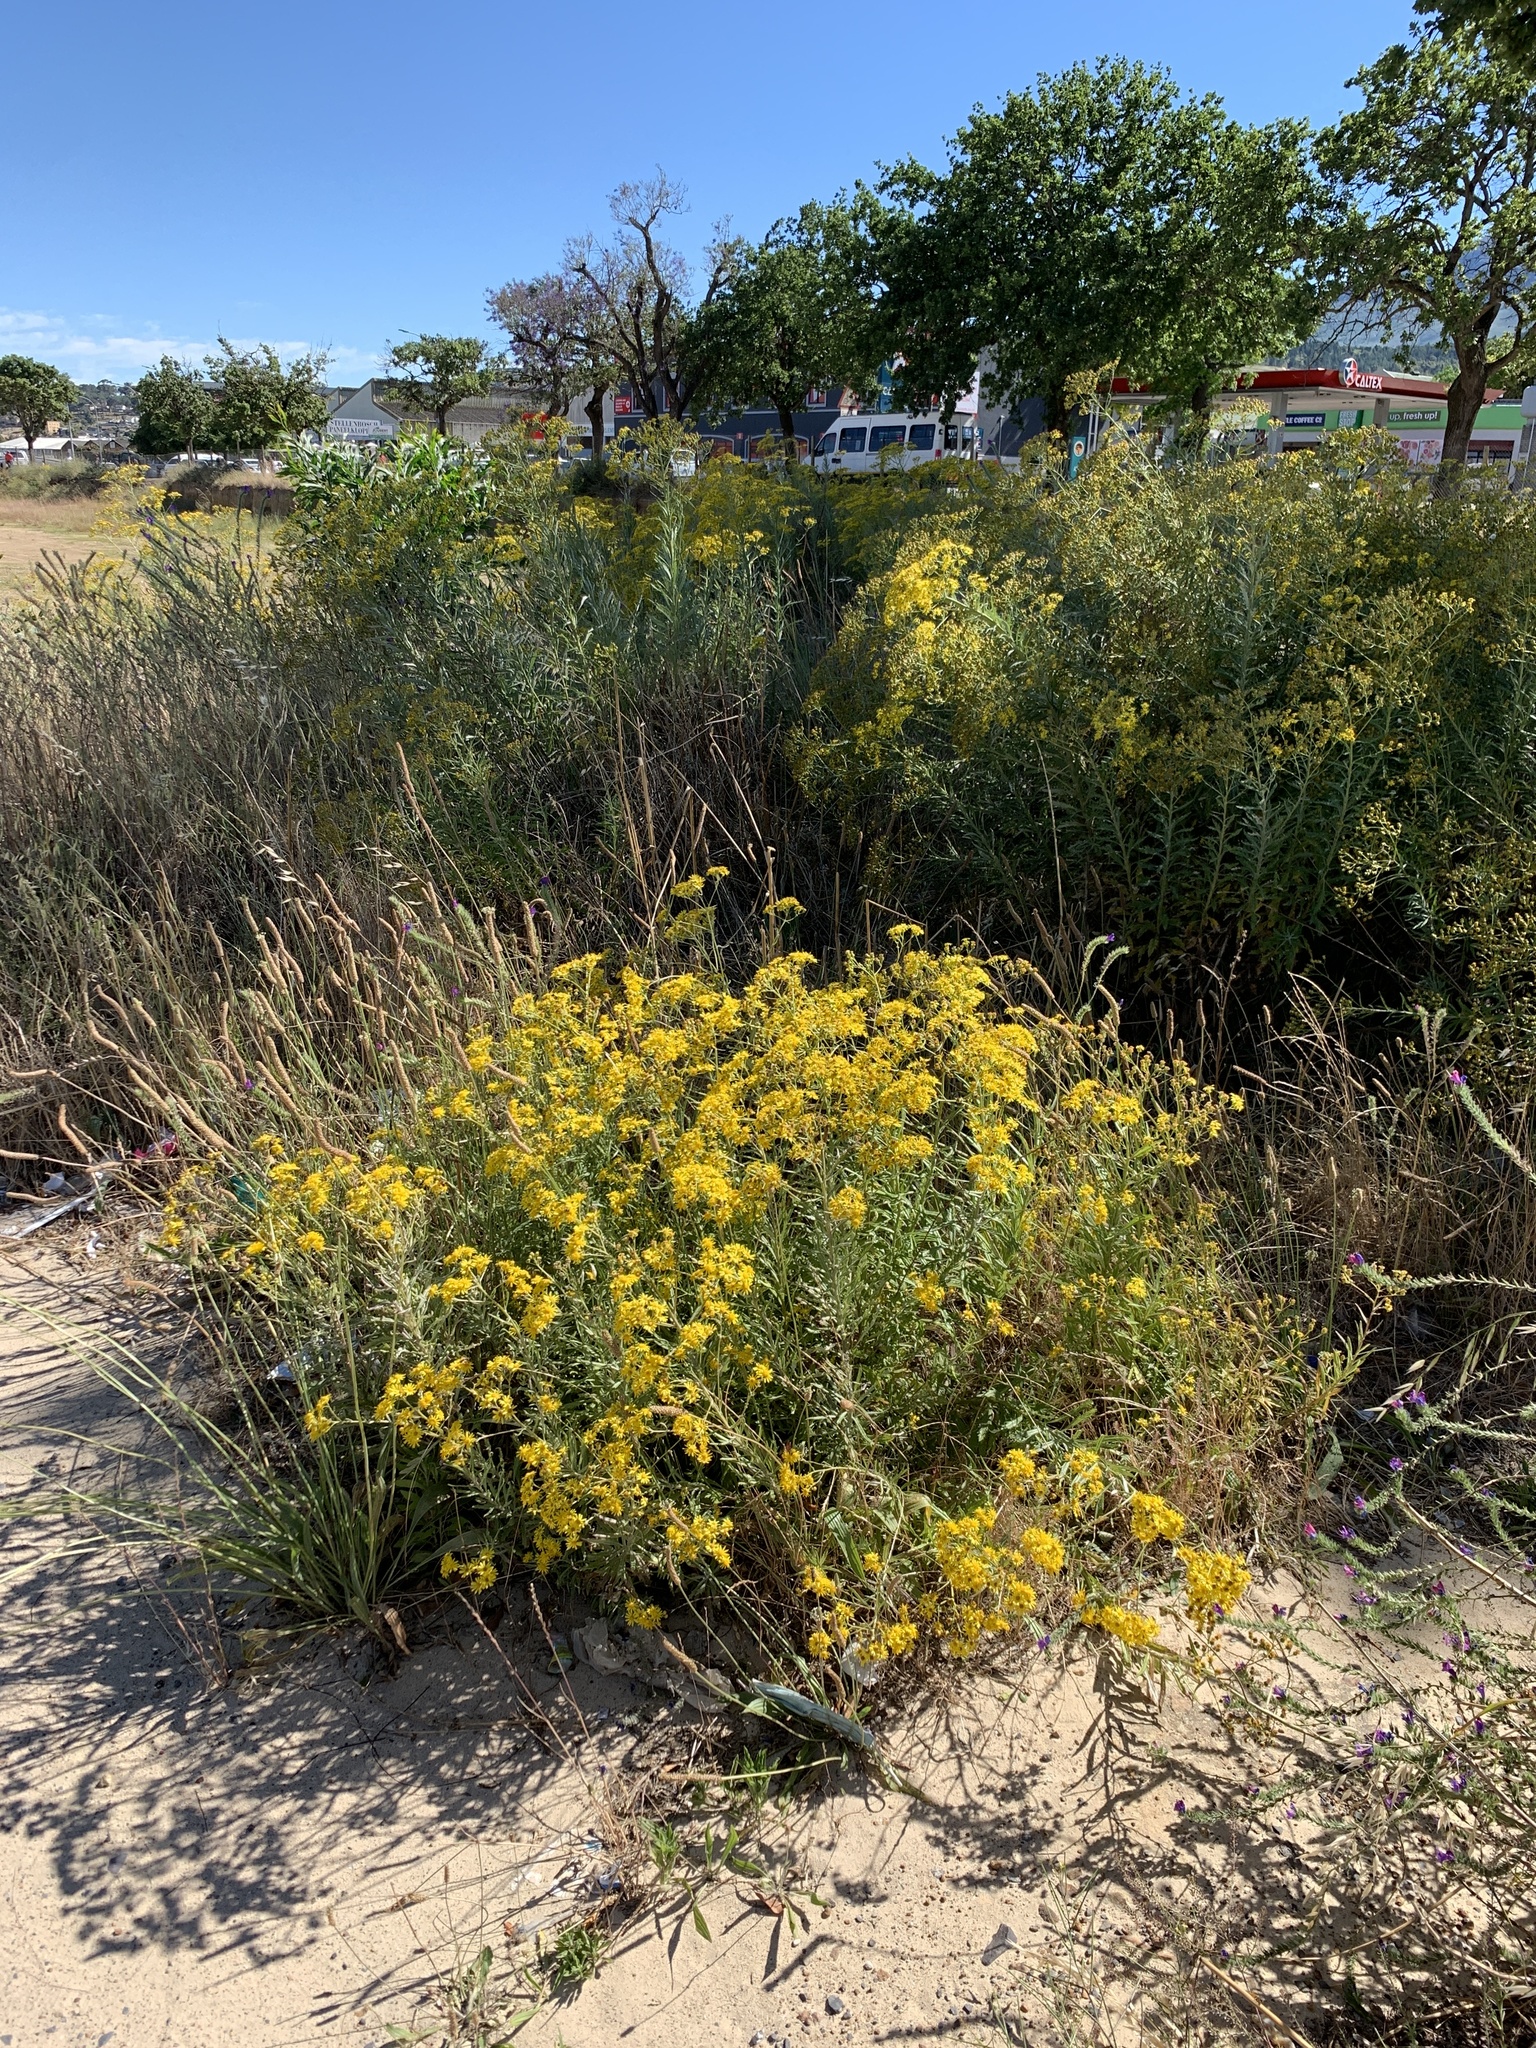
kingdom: Plantae
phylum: Tracheophyta
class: Magnoliopsida
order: Asterales
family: Asteraceae
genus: Senecio
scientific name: Senecio pterophorus
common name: Shoddy ragwort
